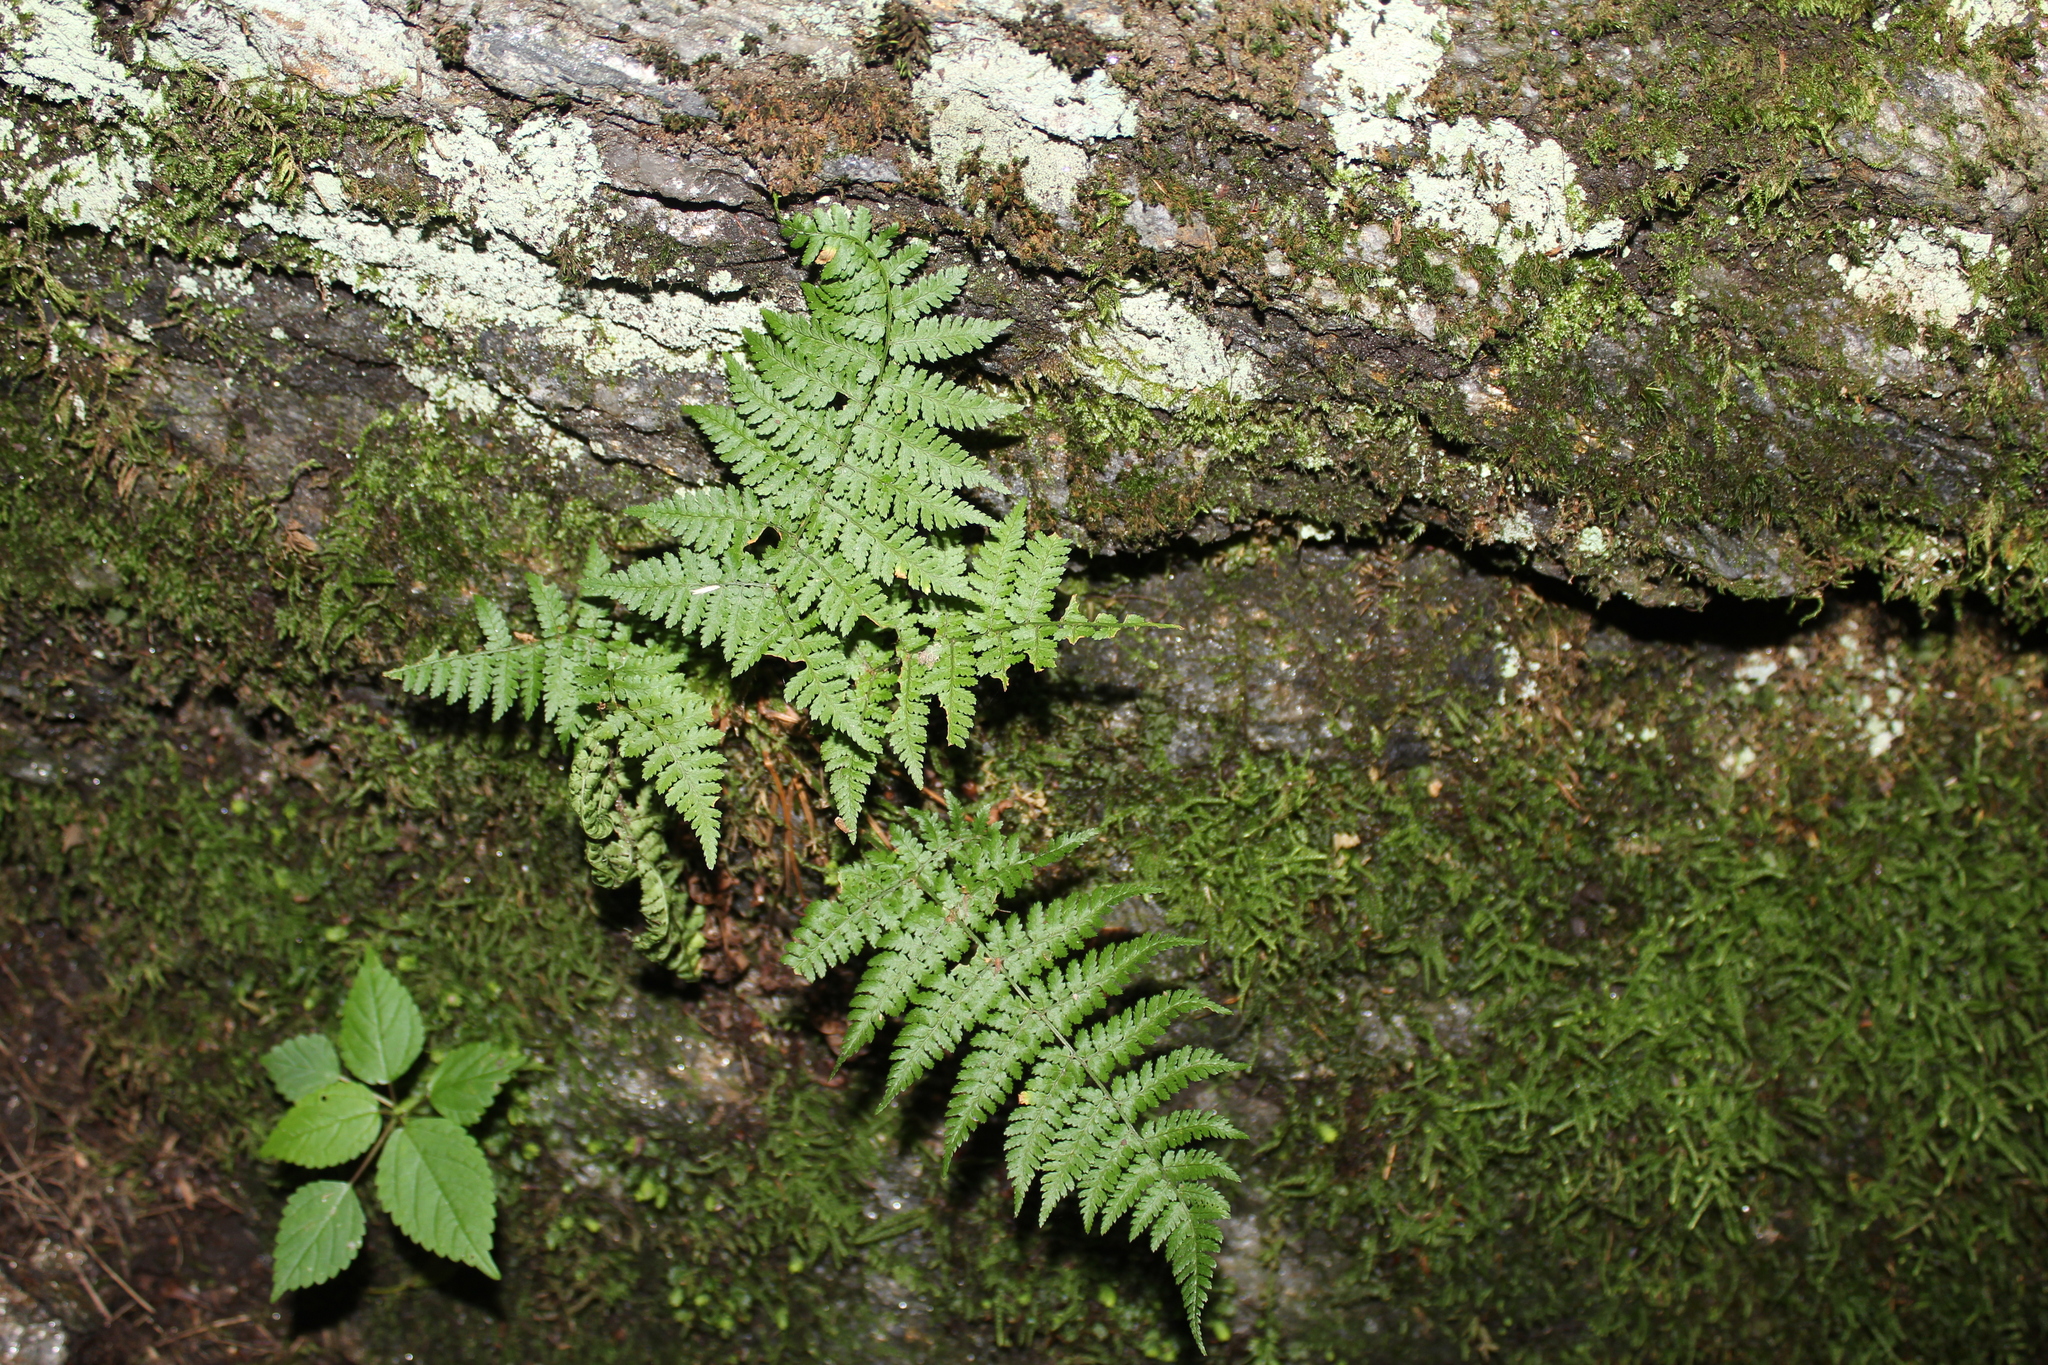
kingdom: Plantae
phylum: Tracheophyta
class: Polypodiopsida
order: Polypodiales
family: Dryopteridaceae
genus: Dryopteris
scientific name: Dryopteris intermedia
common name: Evergreen wood fern
